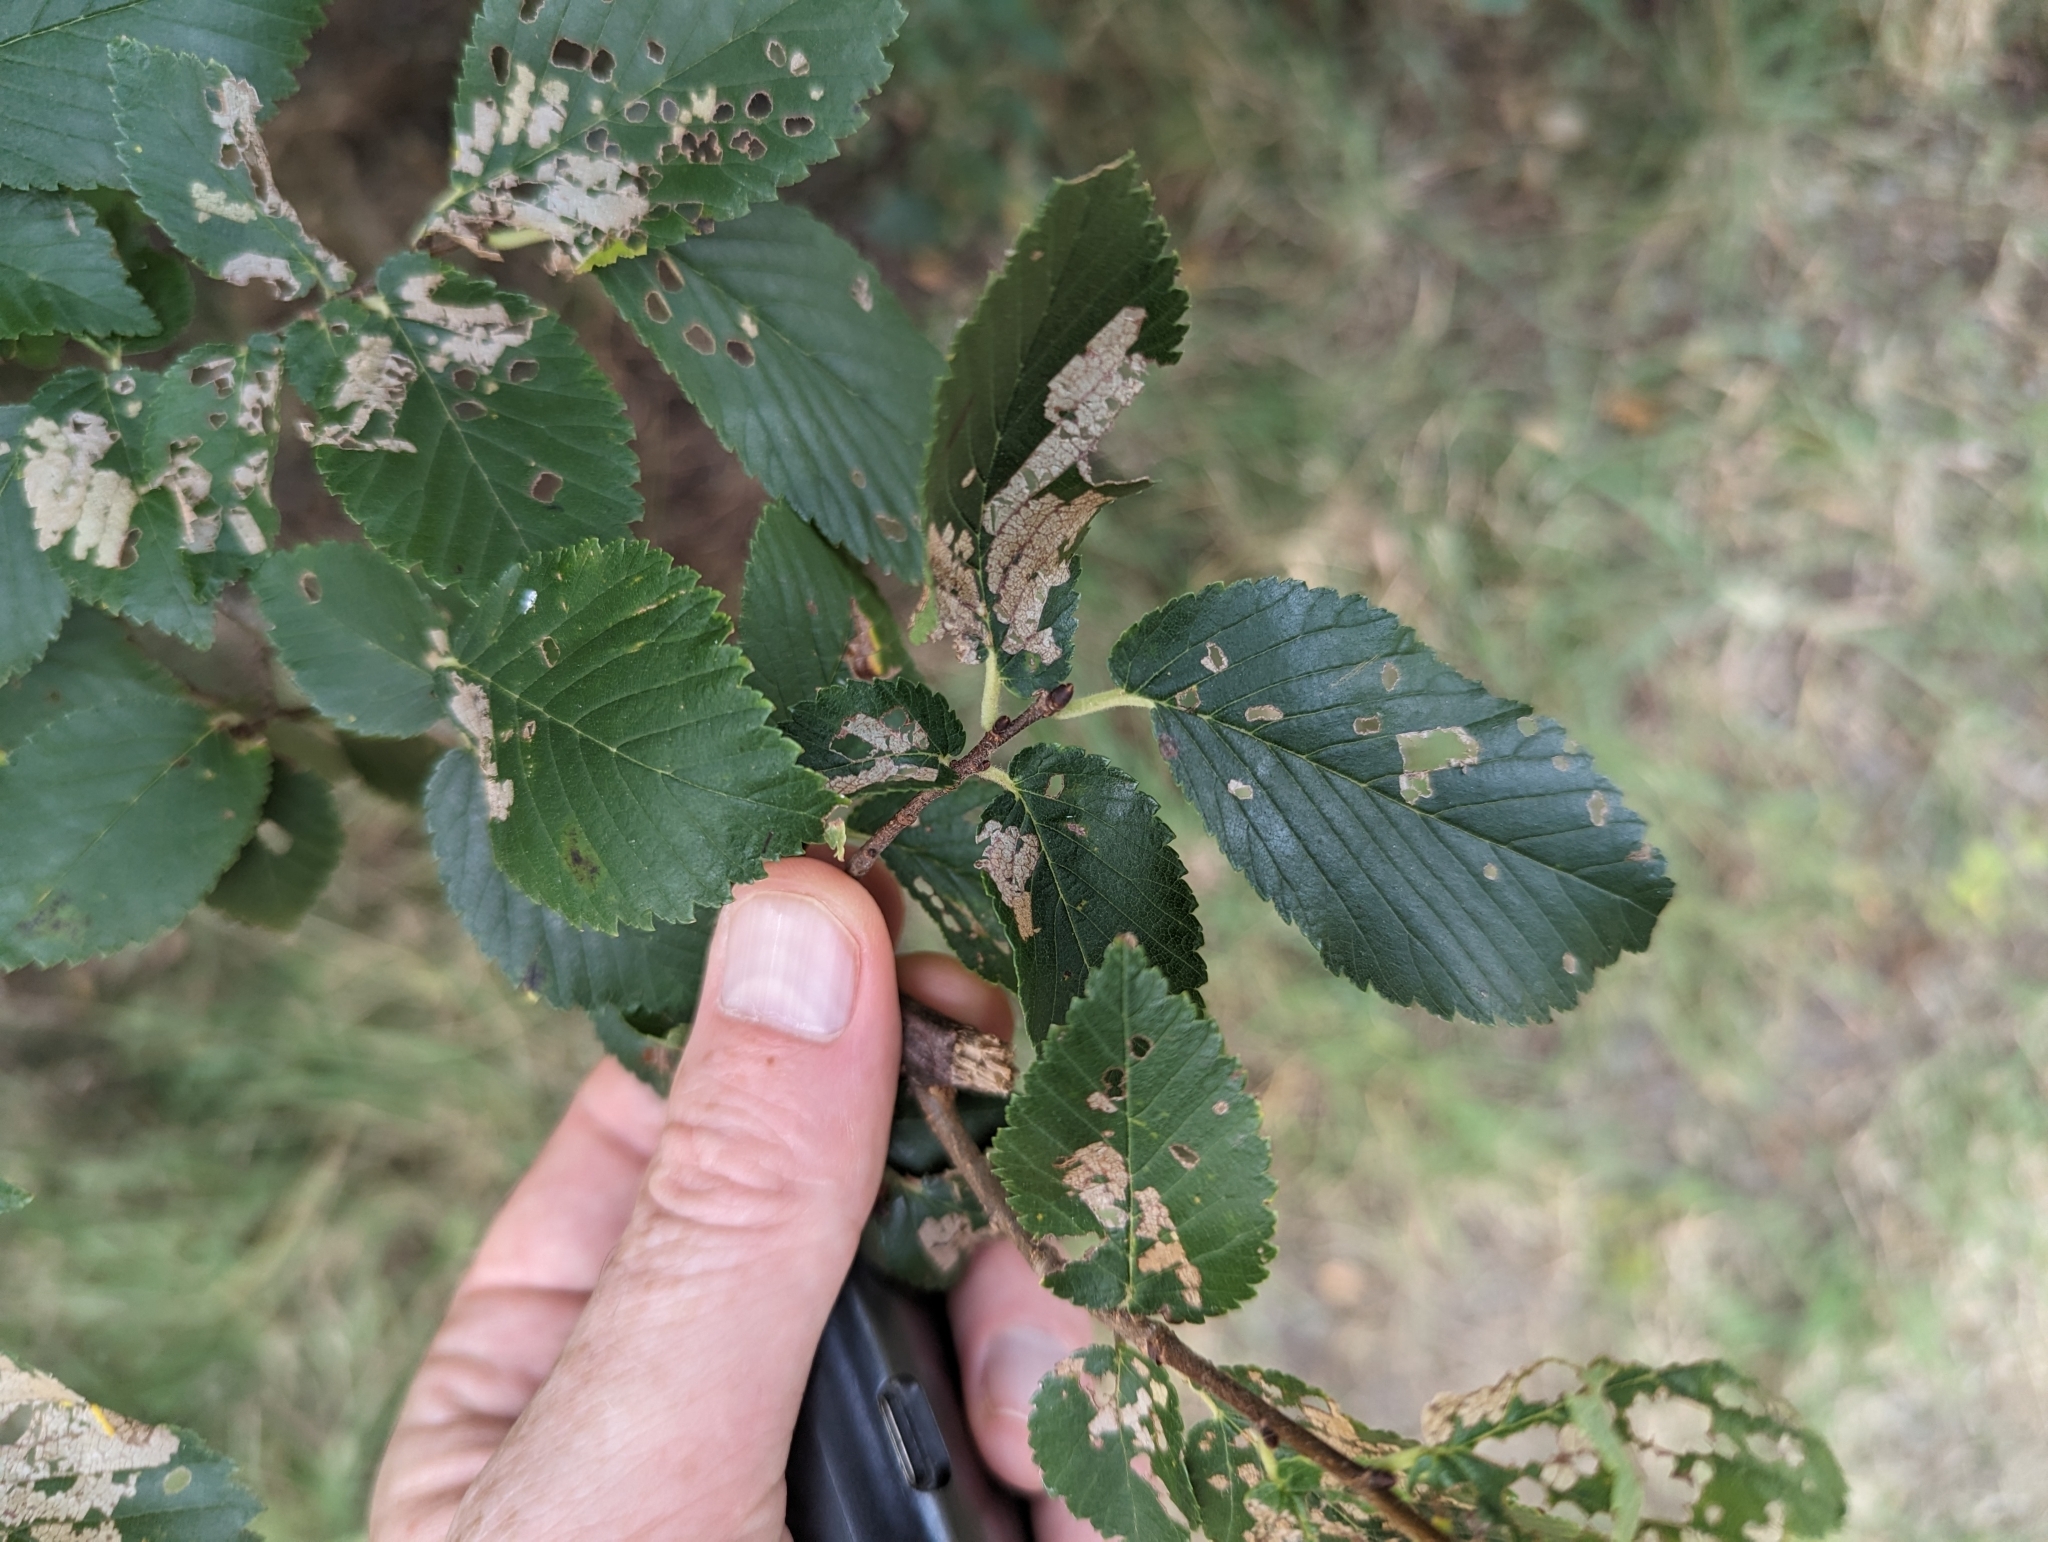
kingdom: Plantae
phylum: Tracheophyta
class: Magnoliopsida
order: Rosales
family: Ulmaceae
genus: Ulmus
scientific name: Ulmus minor
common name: Small-leaved elm
